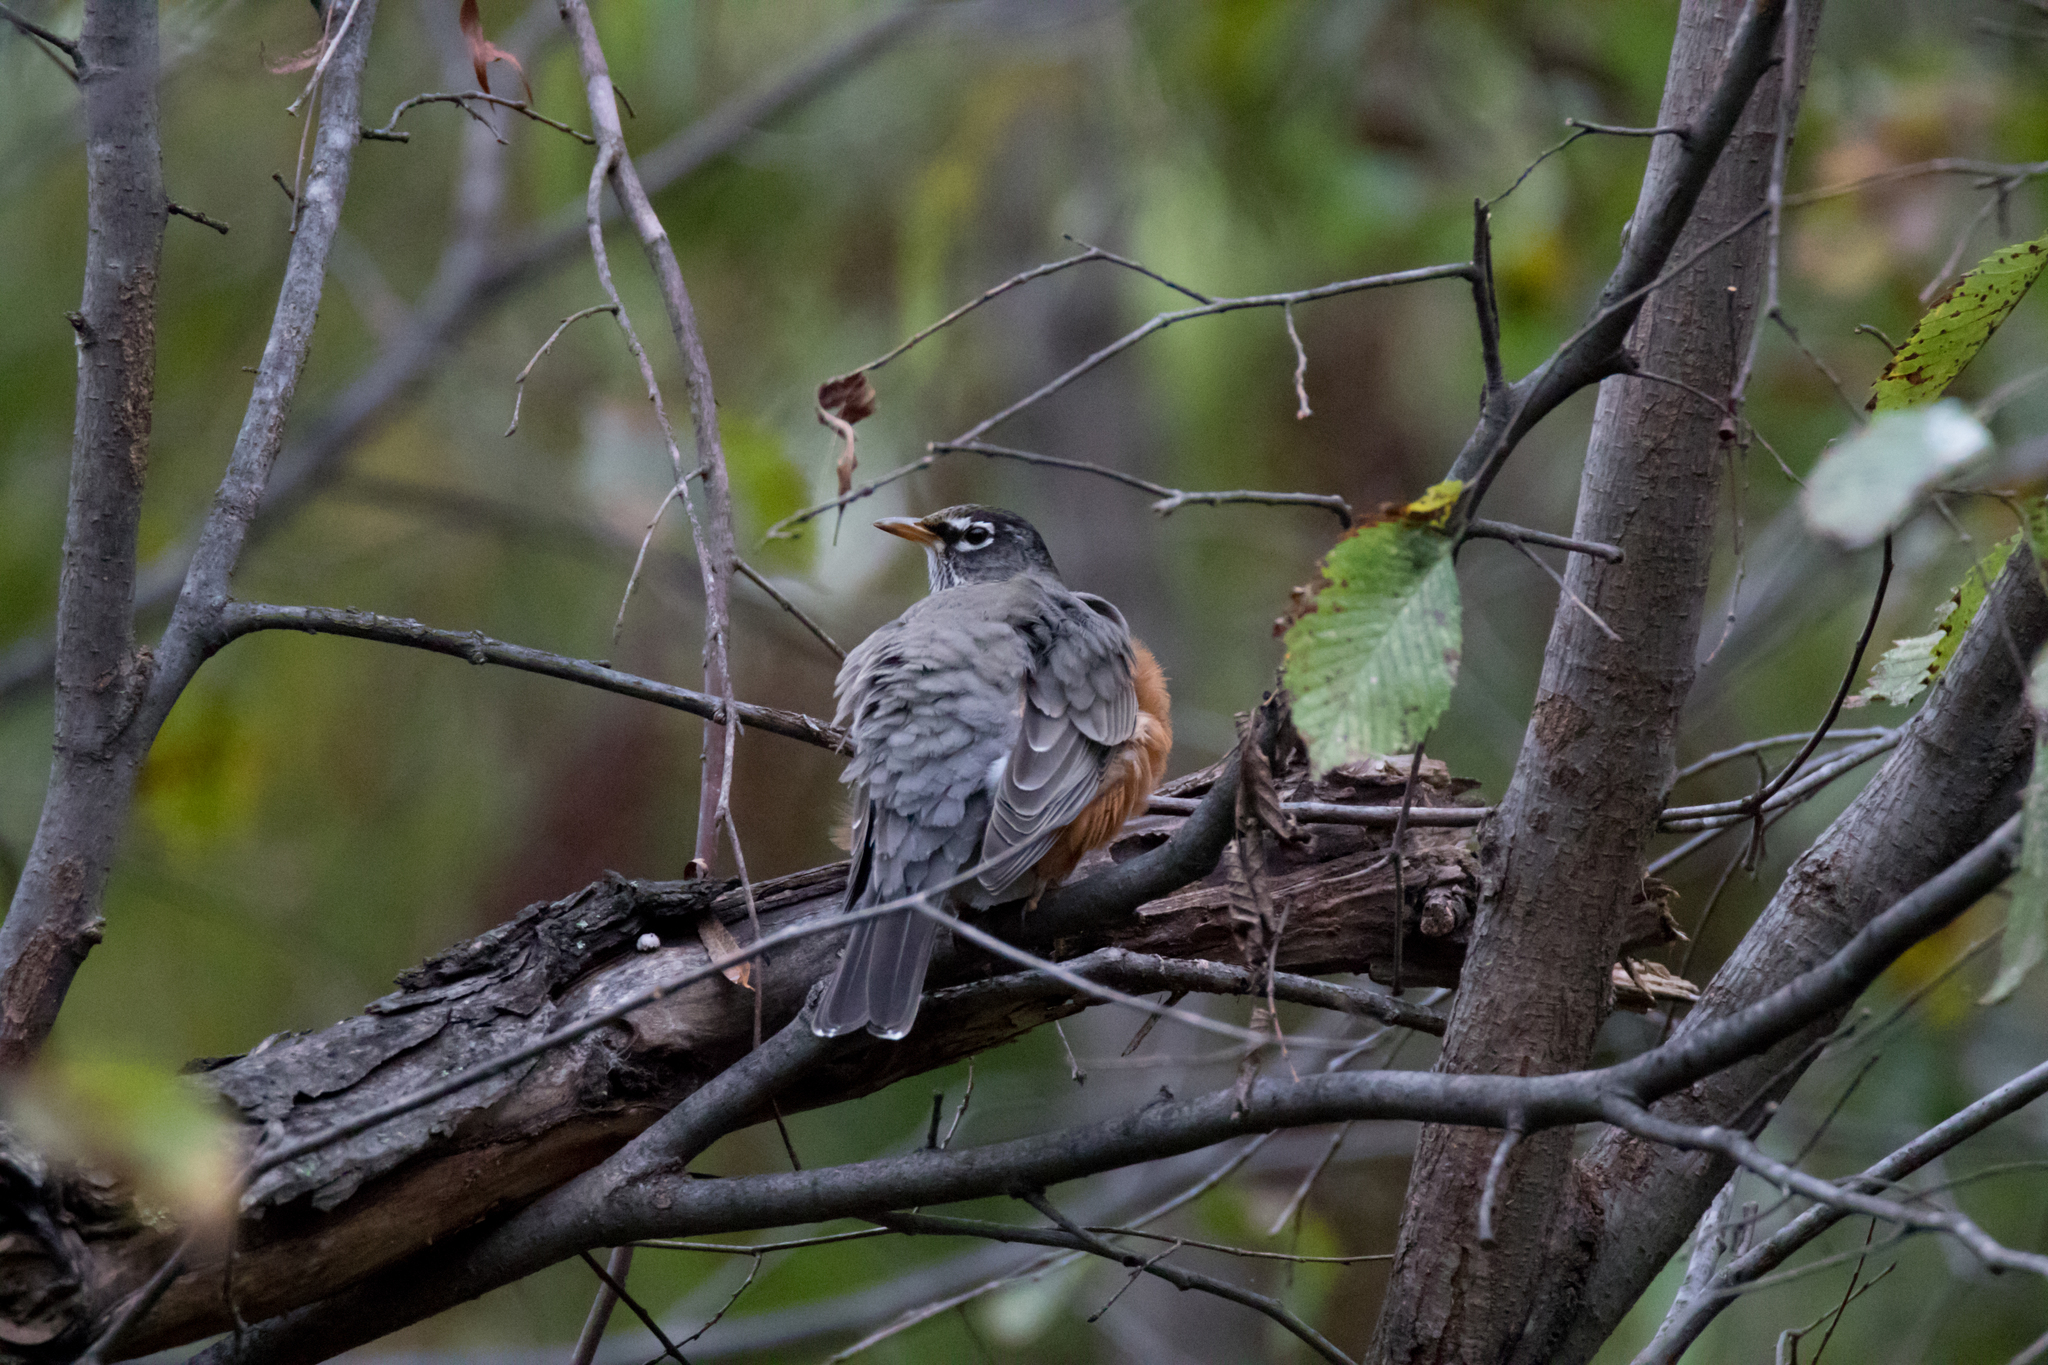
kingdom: Animalia
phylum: Chordata
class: Aves
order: Passeriformes
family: Turdidae
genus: Turdus
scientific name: Turdus migratorius
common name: American robin
